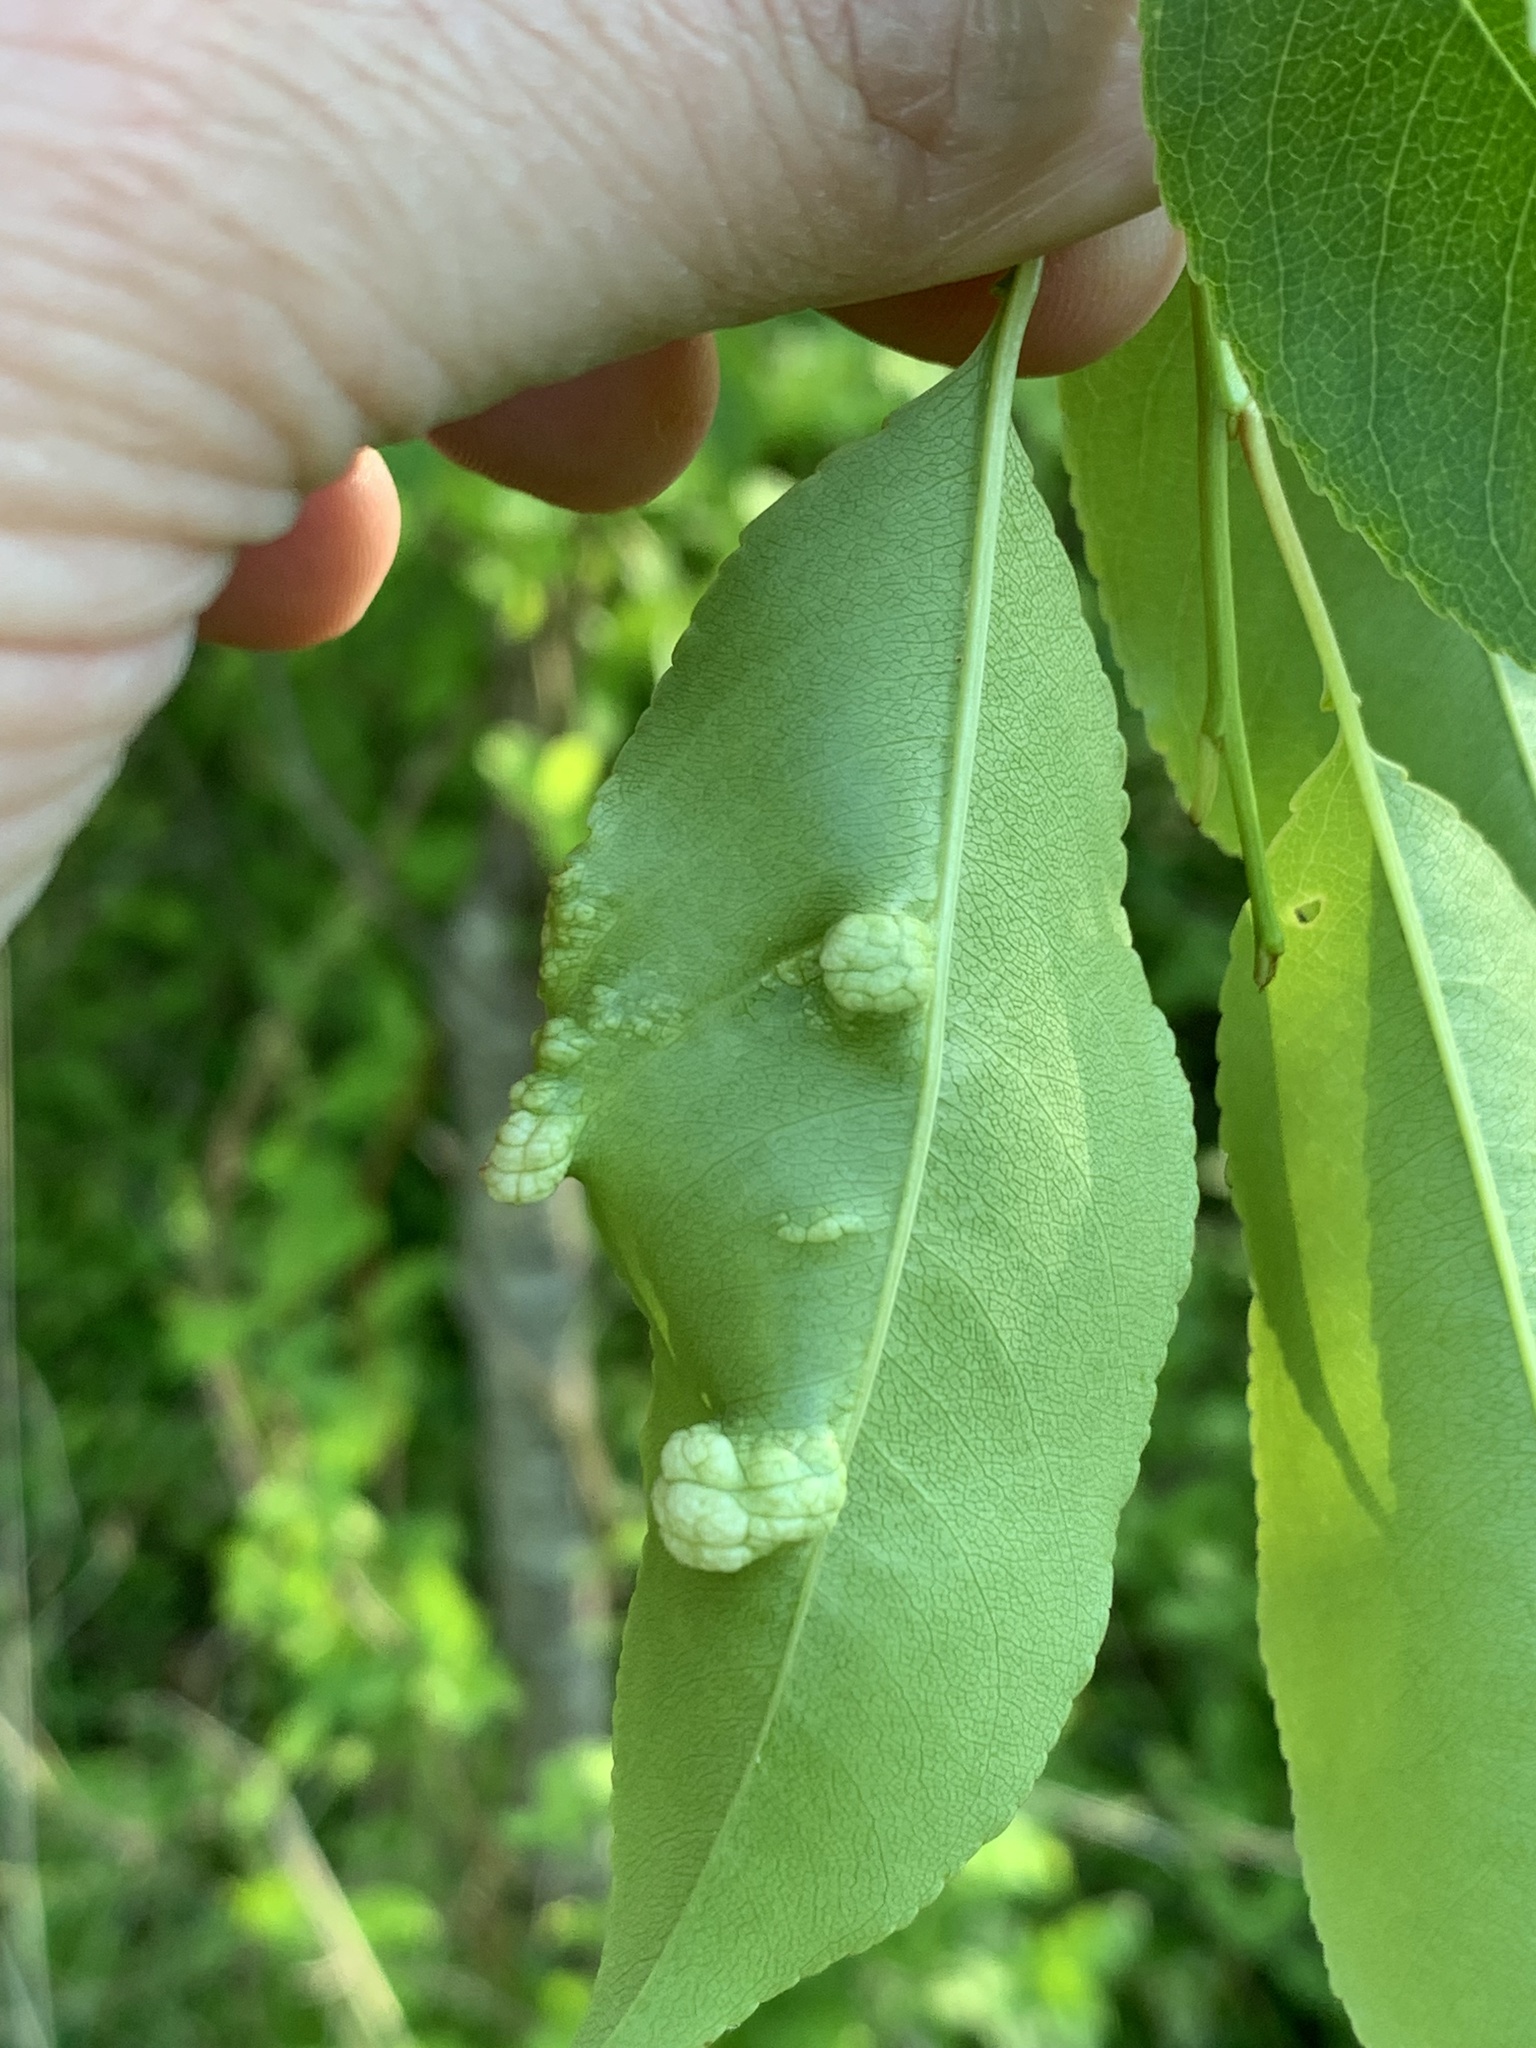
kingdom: Fungi
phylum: Ascomycota
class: Taphrinomycetes
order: Taphrinales
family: Taphrinaceae
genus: Taphrina
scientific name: Taphrina farlowii
